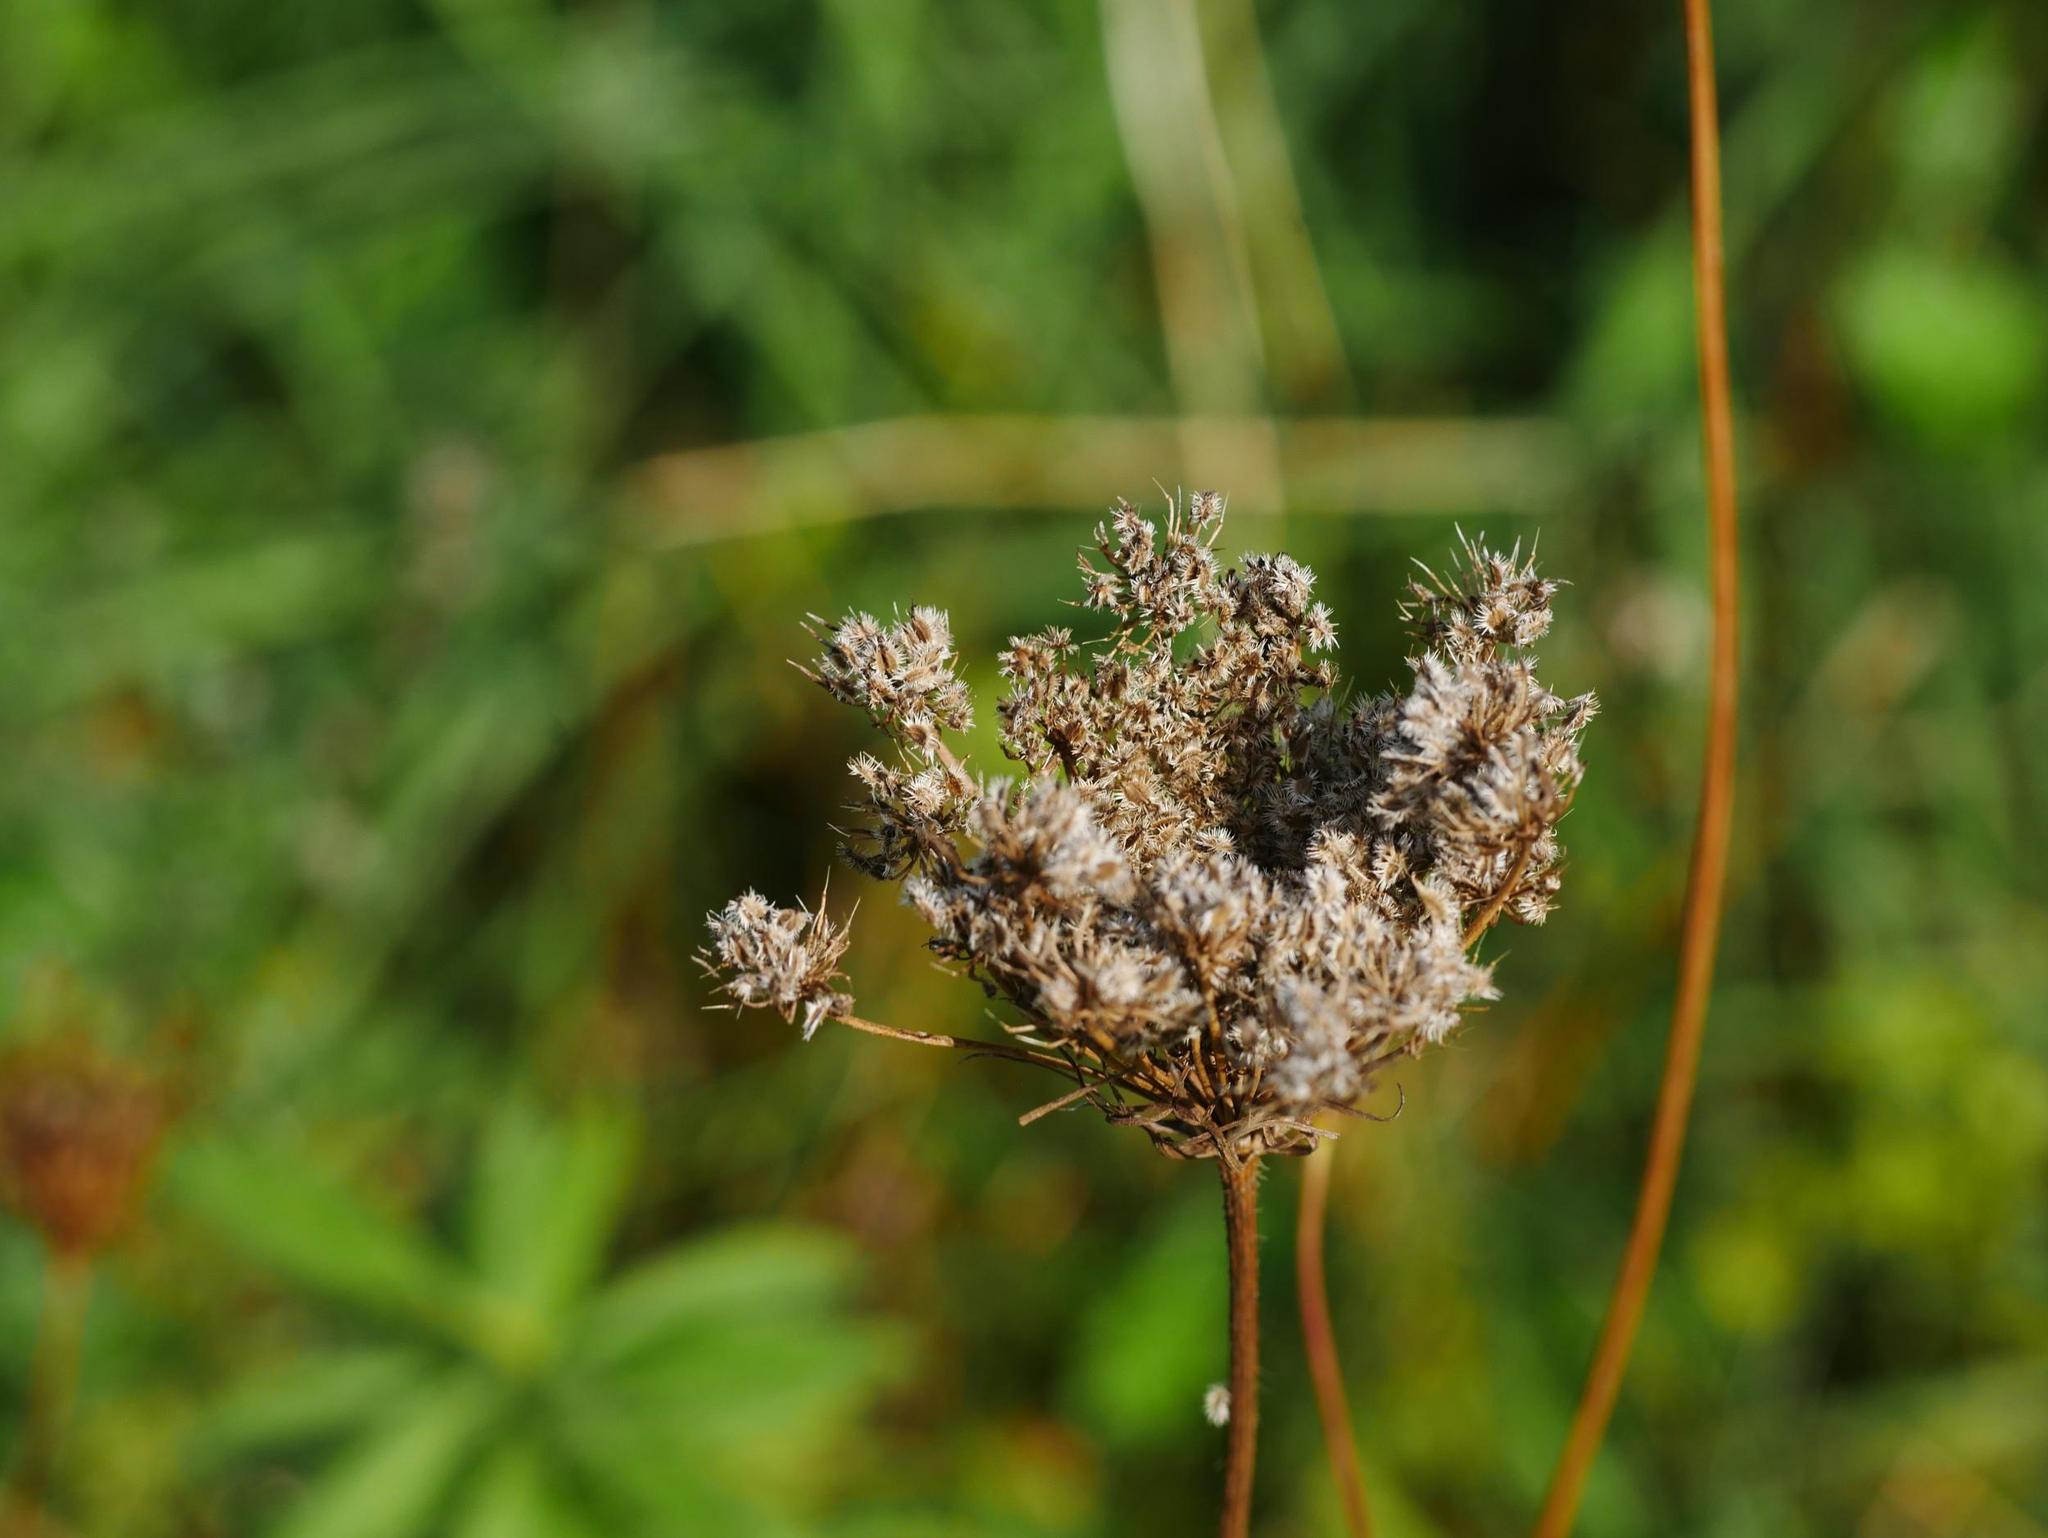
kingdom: Plantae
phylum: Tracheophyta
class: Magnoliopsida
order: Apiales
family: Apiaceae
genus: Daucus
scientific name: Daucus carota
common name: Wild carrot
